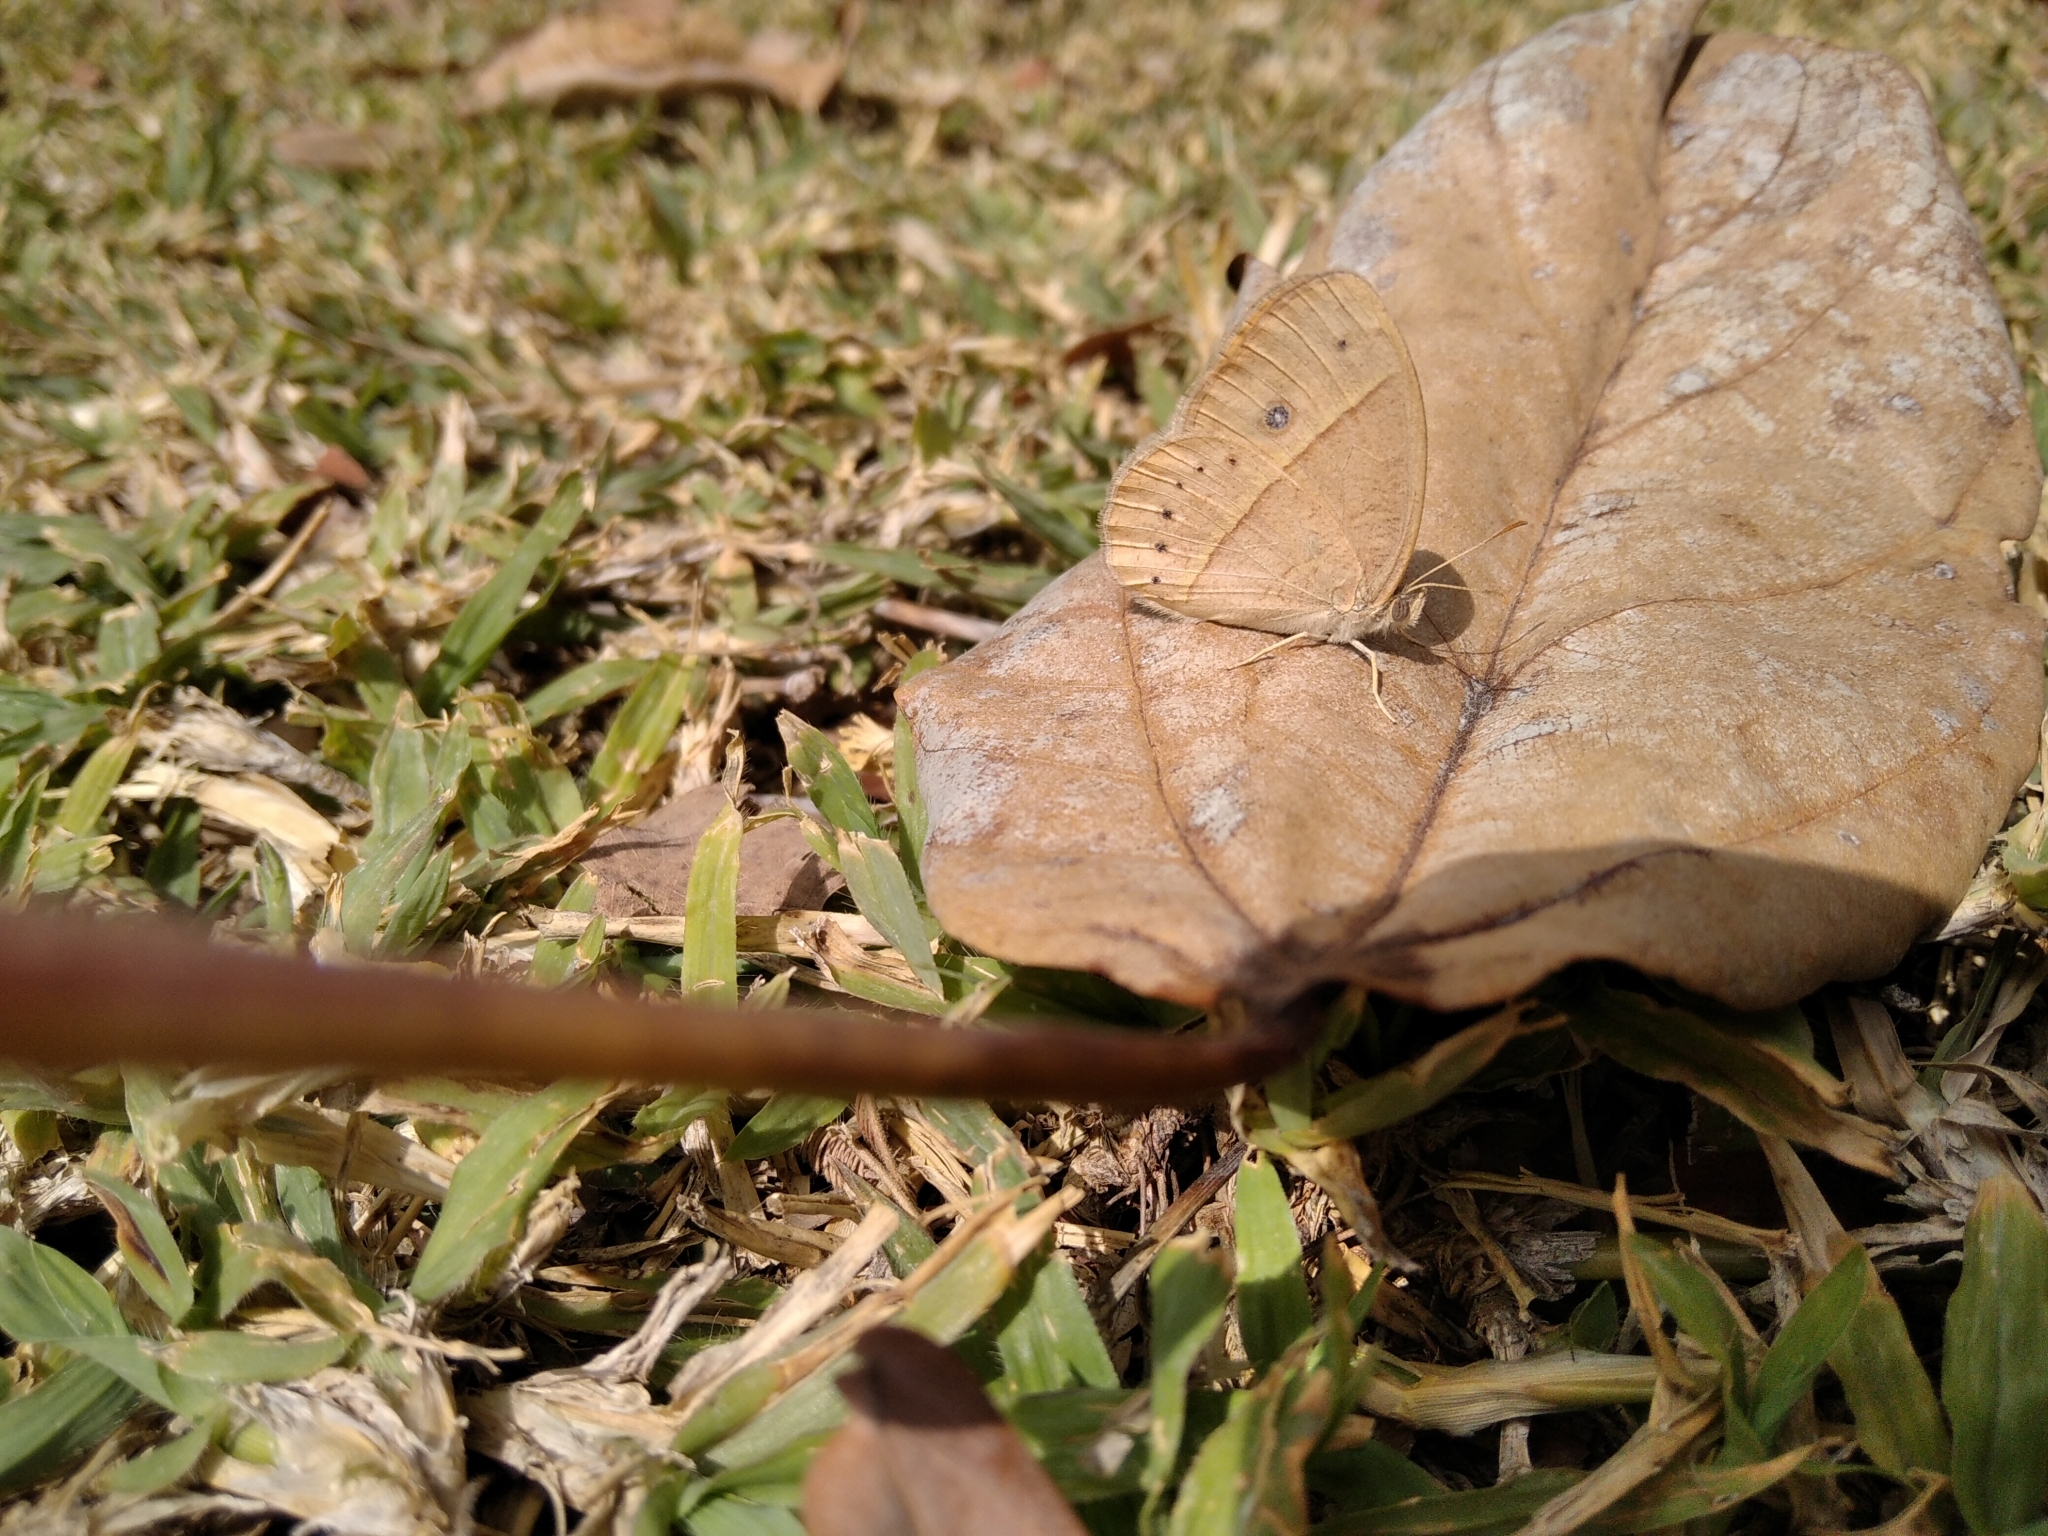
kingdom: Animalia
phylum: Arthropoda
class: Insecta
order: Lepidoptera
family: Nymphalidae
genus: Brakefieldia
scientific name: Brakefieldia simonsii
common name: Pale patroller
